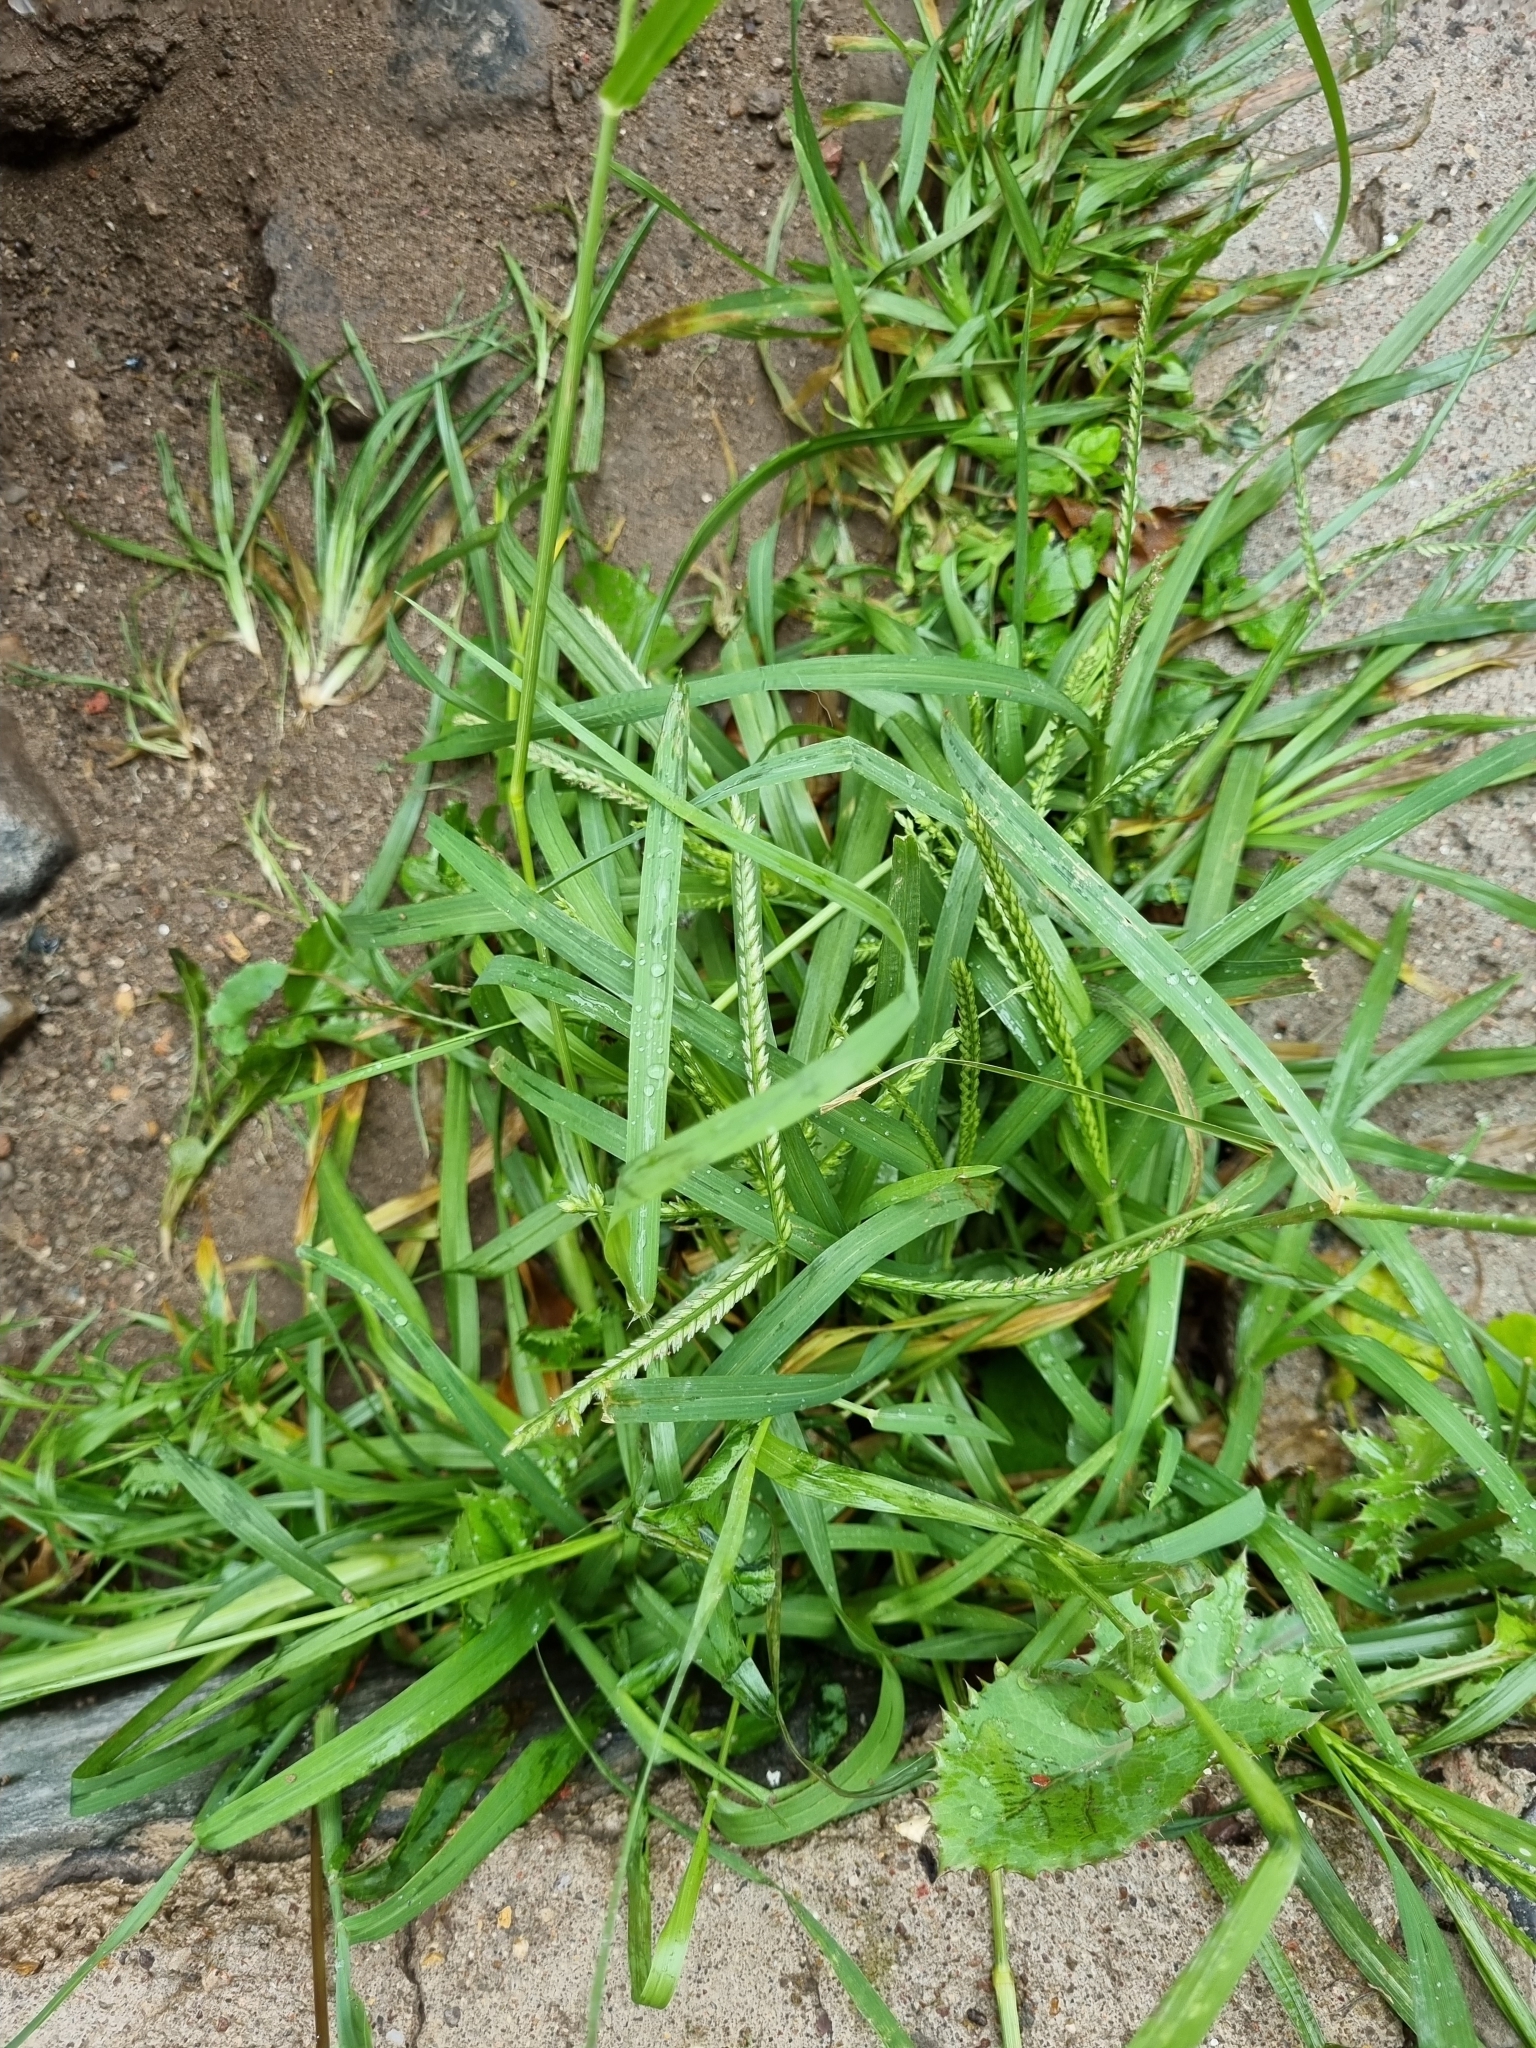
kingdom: Plantae
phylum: Tracheophyta
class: Liliopsida
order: Poales
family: Poaceae
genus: Eleusine
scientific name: Eleusine indica
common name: Yard-grass
